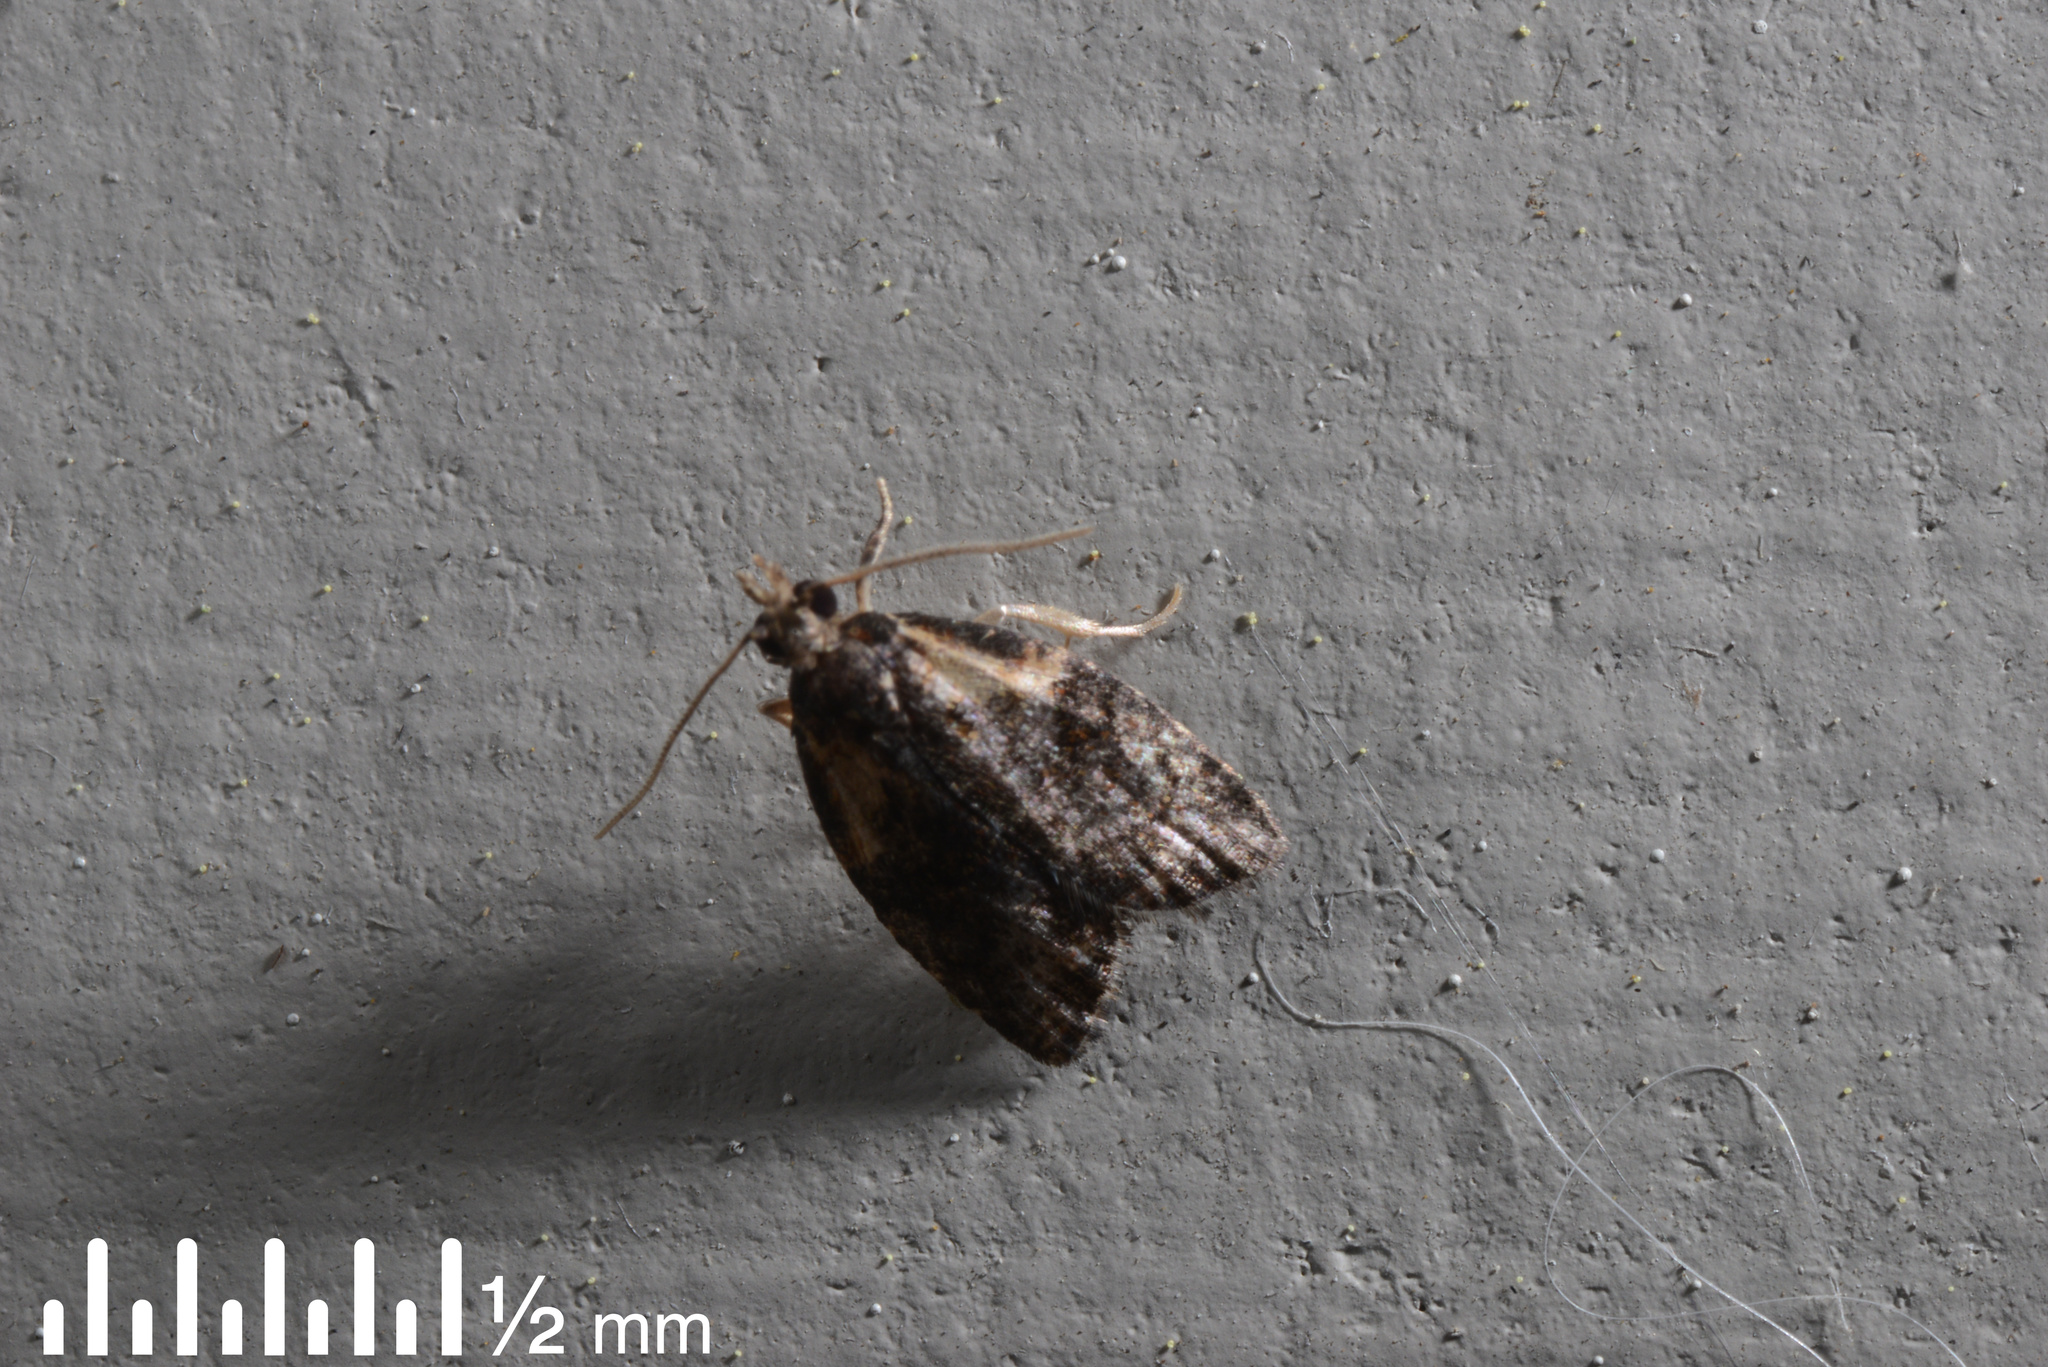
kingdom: Animalia
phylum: Arthropoda
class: Insecta
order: Lepidoptera
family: Tortricidae
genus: Capua
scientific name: Capua intractana
